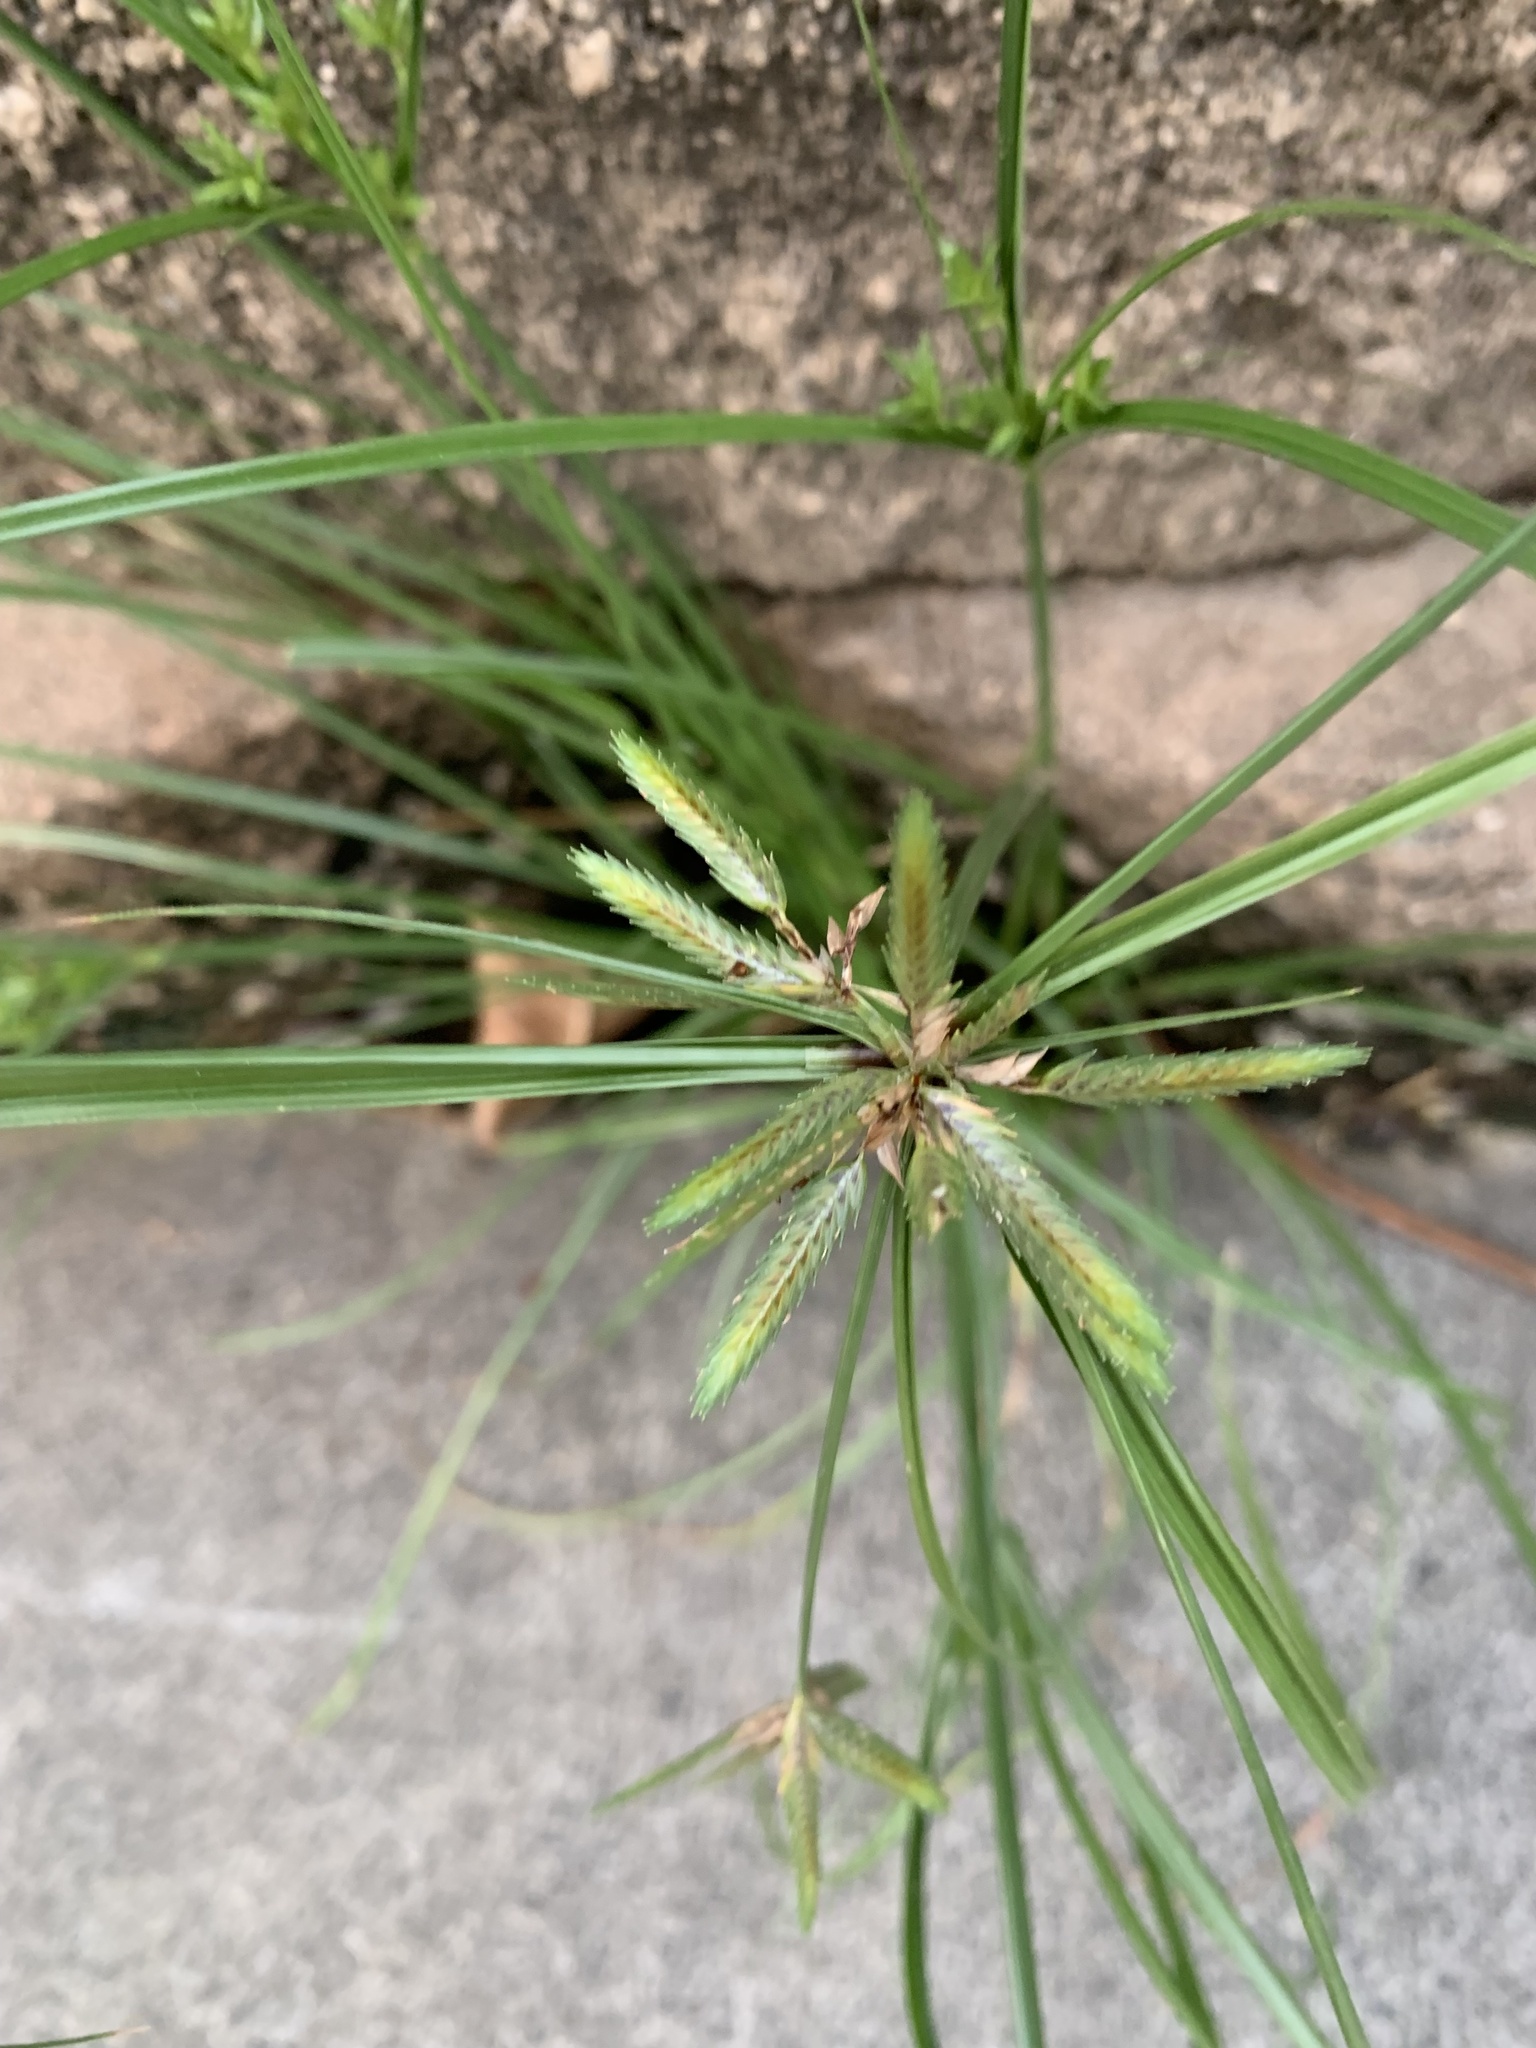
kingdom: Plantae
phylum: Tracheophyta
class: Liliopsida
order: Poales
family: Cyperaceae
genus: Cyperus
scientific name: Cyperus compressus
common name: Poorland flatsedge
